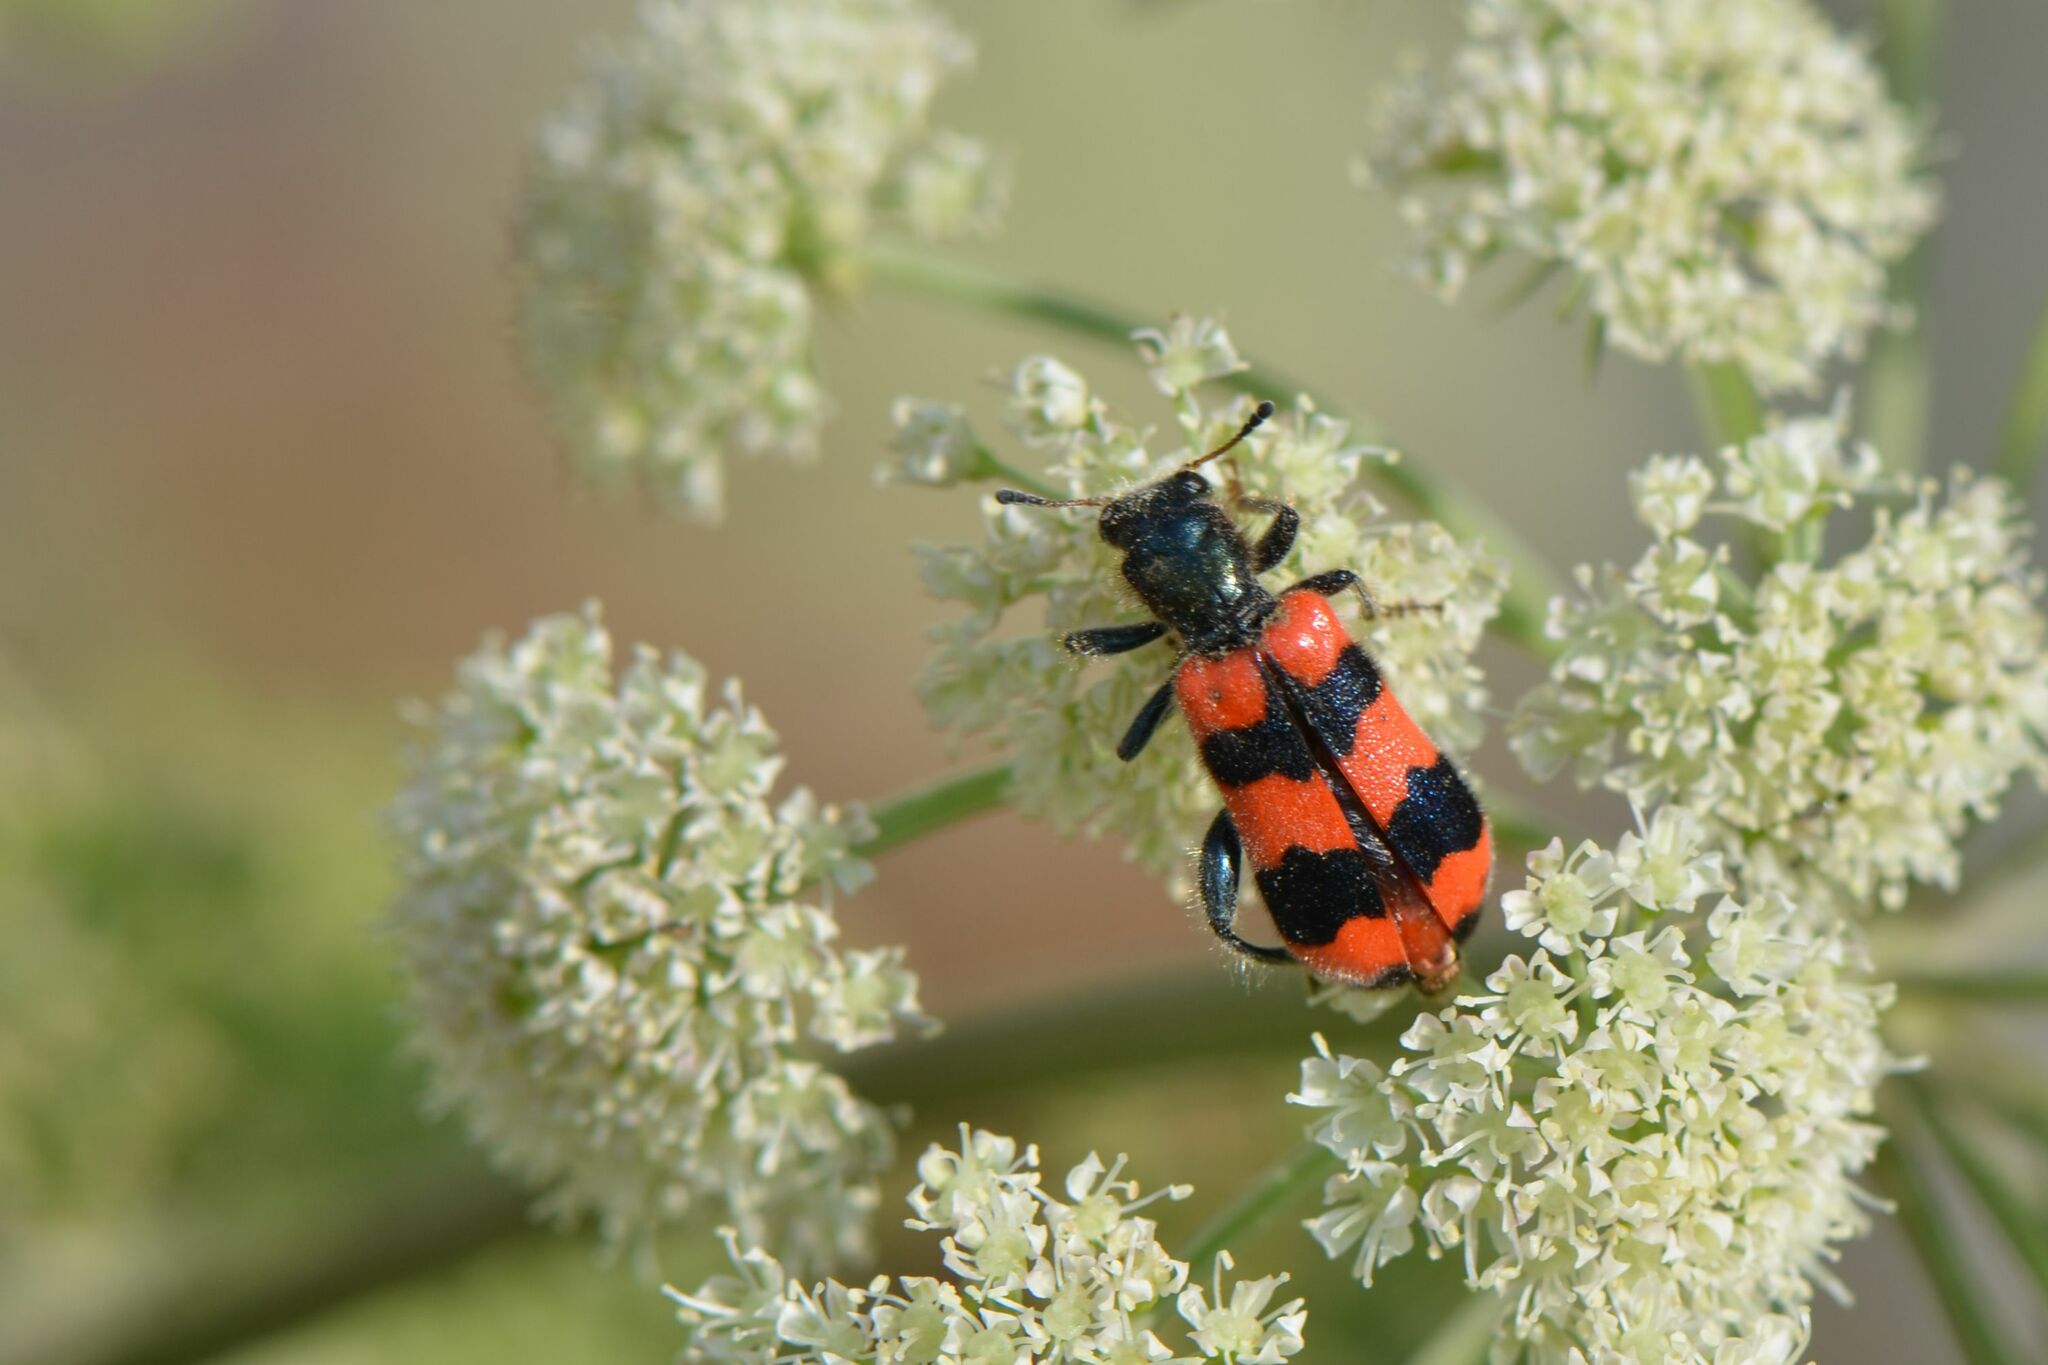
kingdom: Animalia
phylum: Arthropoda
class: Insecta
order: Coleoptera
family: Cleridae
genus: Trichodes
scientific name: Trichodes apiarius
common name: Bee-eating beetle
